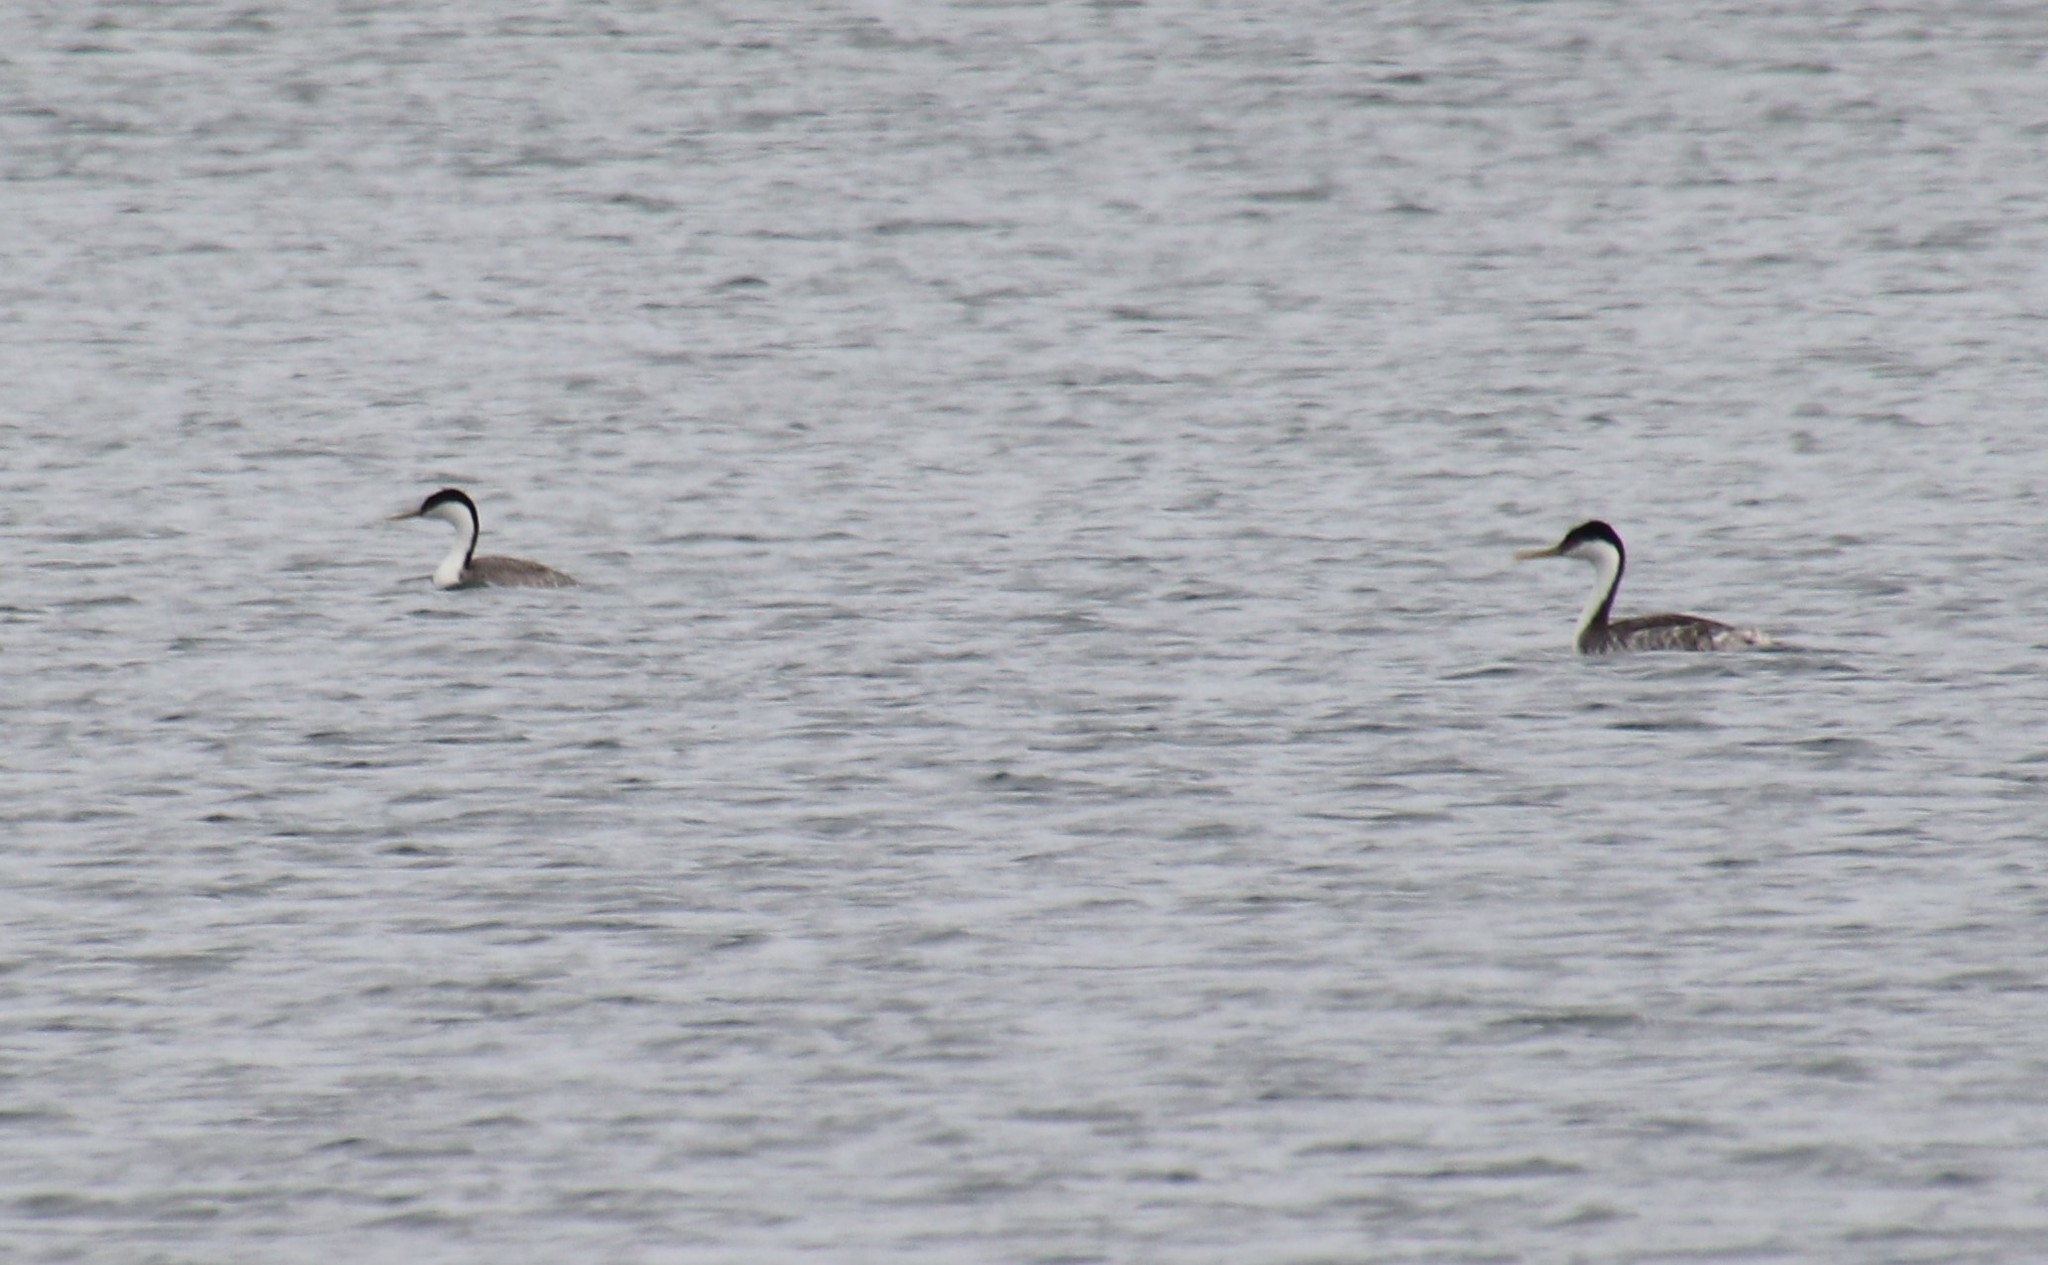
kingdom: Animalia
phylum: Chordata
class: Aves
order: Podicipediformes
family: Podicipedidae
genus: Aechmophorus
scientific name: Aechmophorus occidentalis
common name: Western grebe
